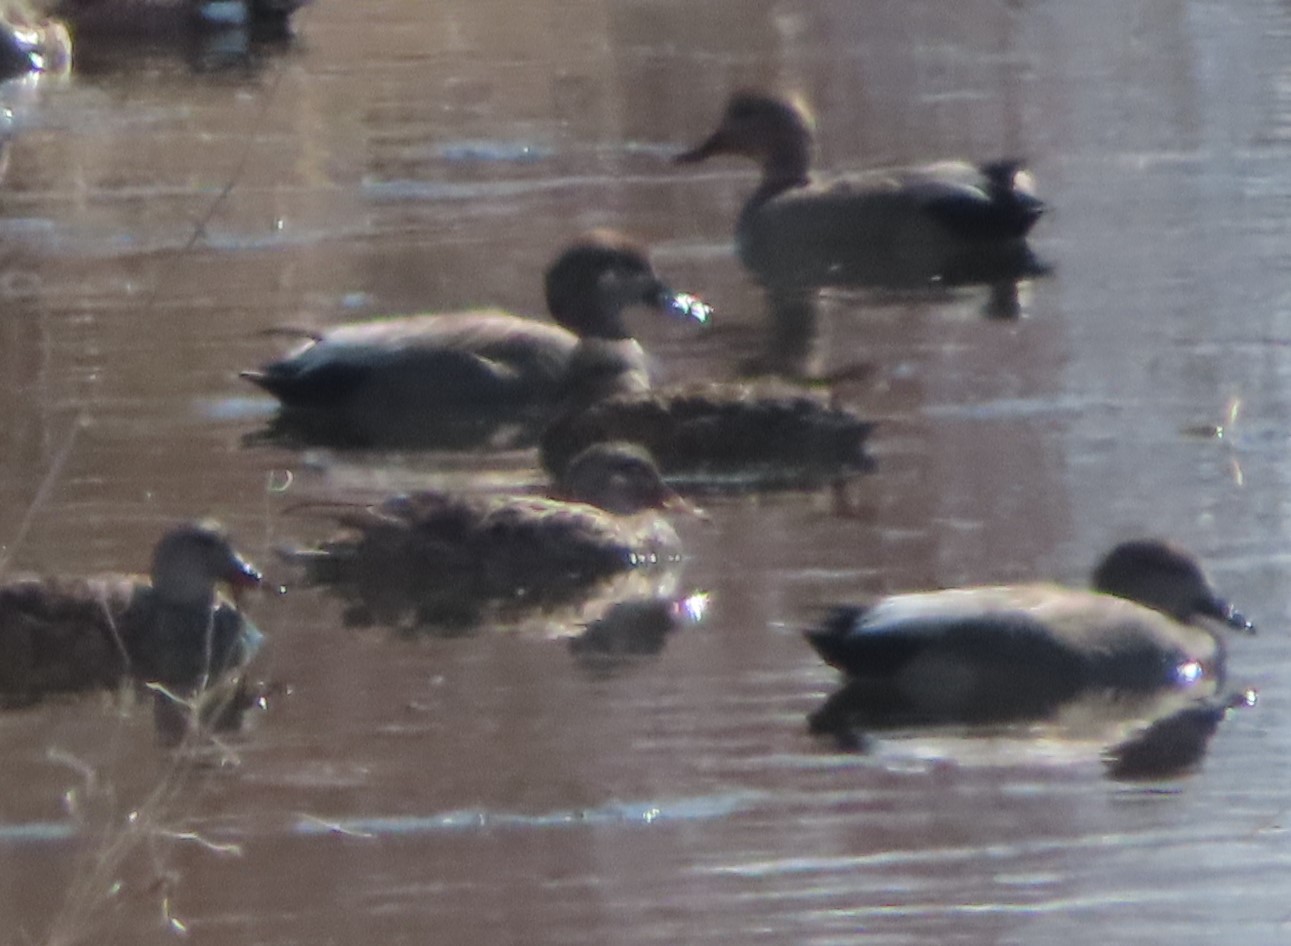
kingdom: Animalia
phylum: Chordata
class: Aves
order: Anseriformes
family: Anatidae
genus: Mareca
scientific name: Mareca strepera
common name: Gadwall
